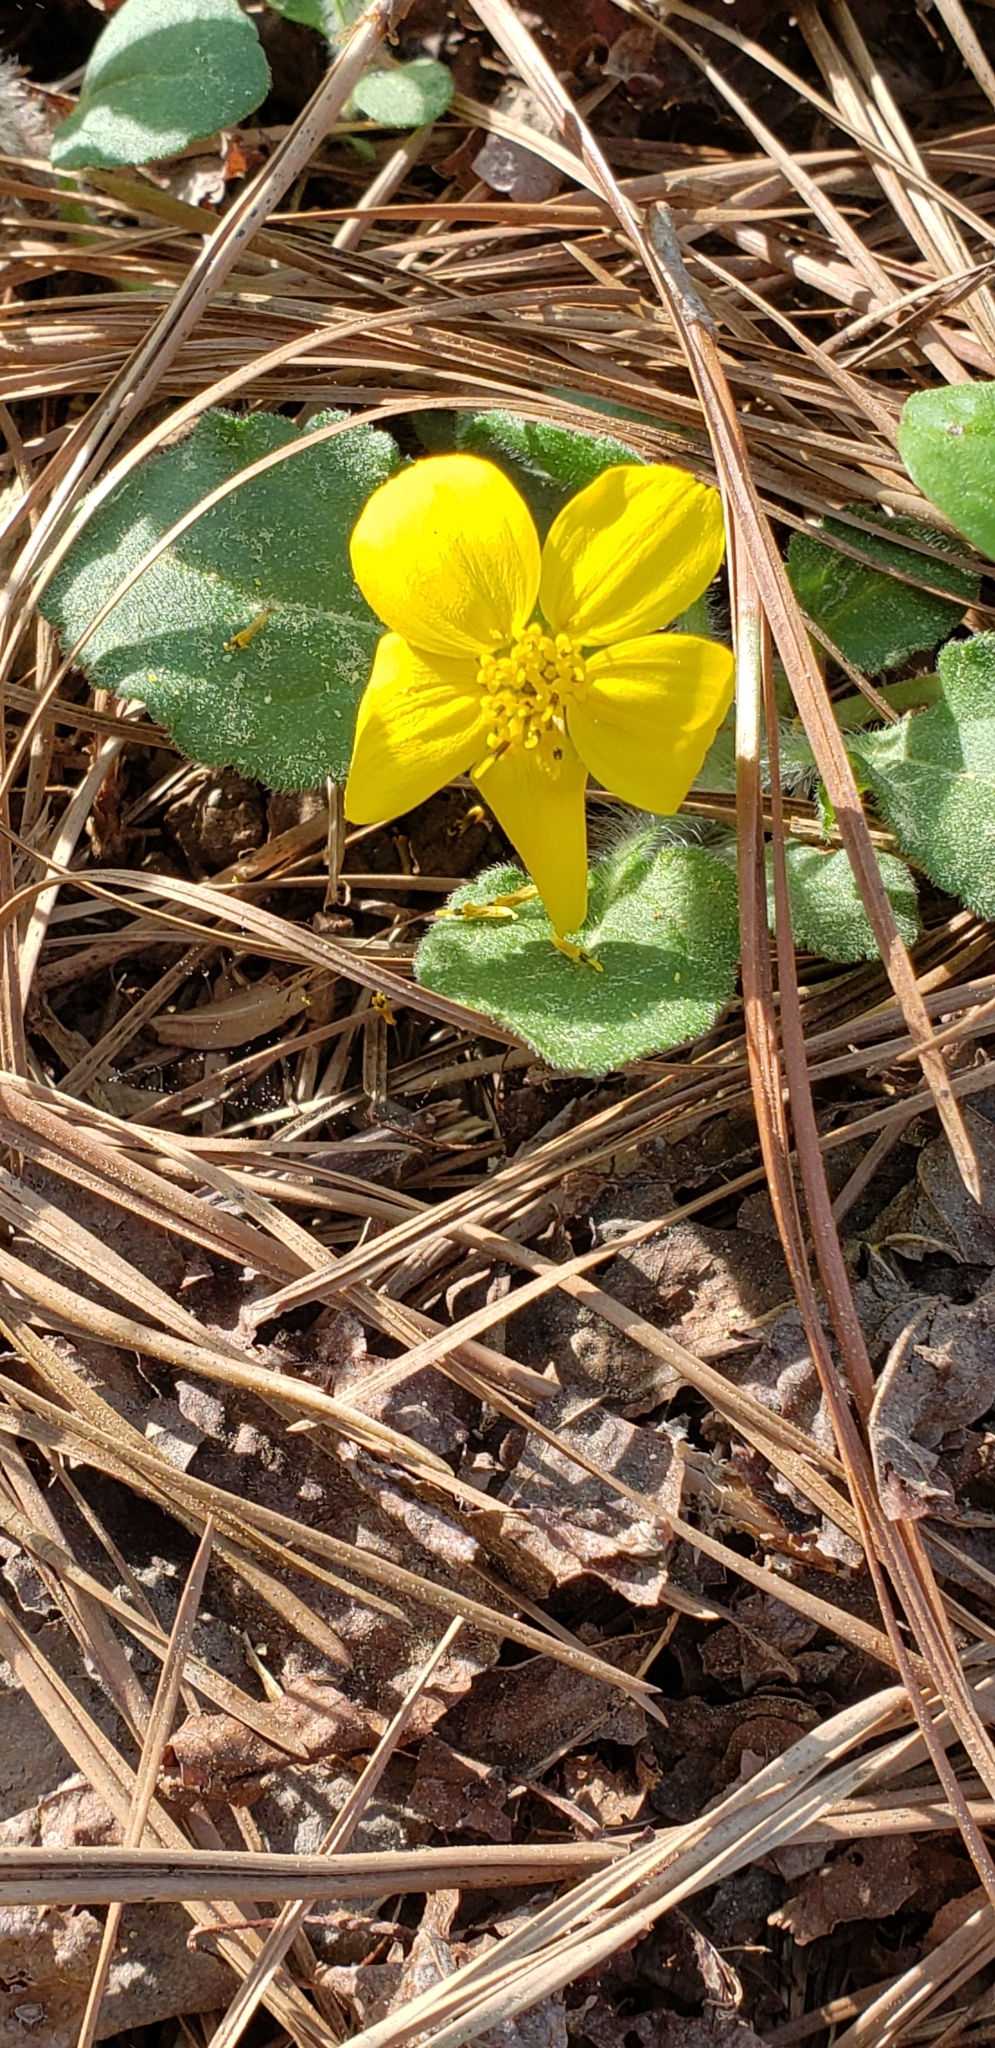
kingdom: Plantae
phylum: Tracheophyta
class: Magnoliopsida
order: Asterales
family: Asteraceae
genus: Chrysogonum
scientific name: Chrysogonum virginianum
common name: Golden-knee
